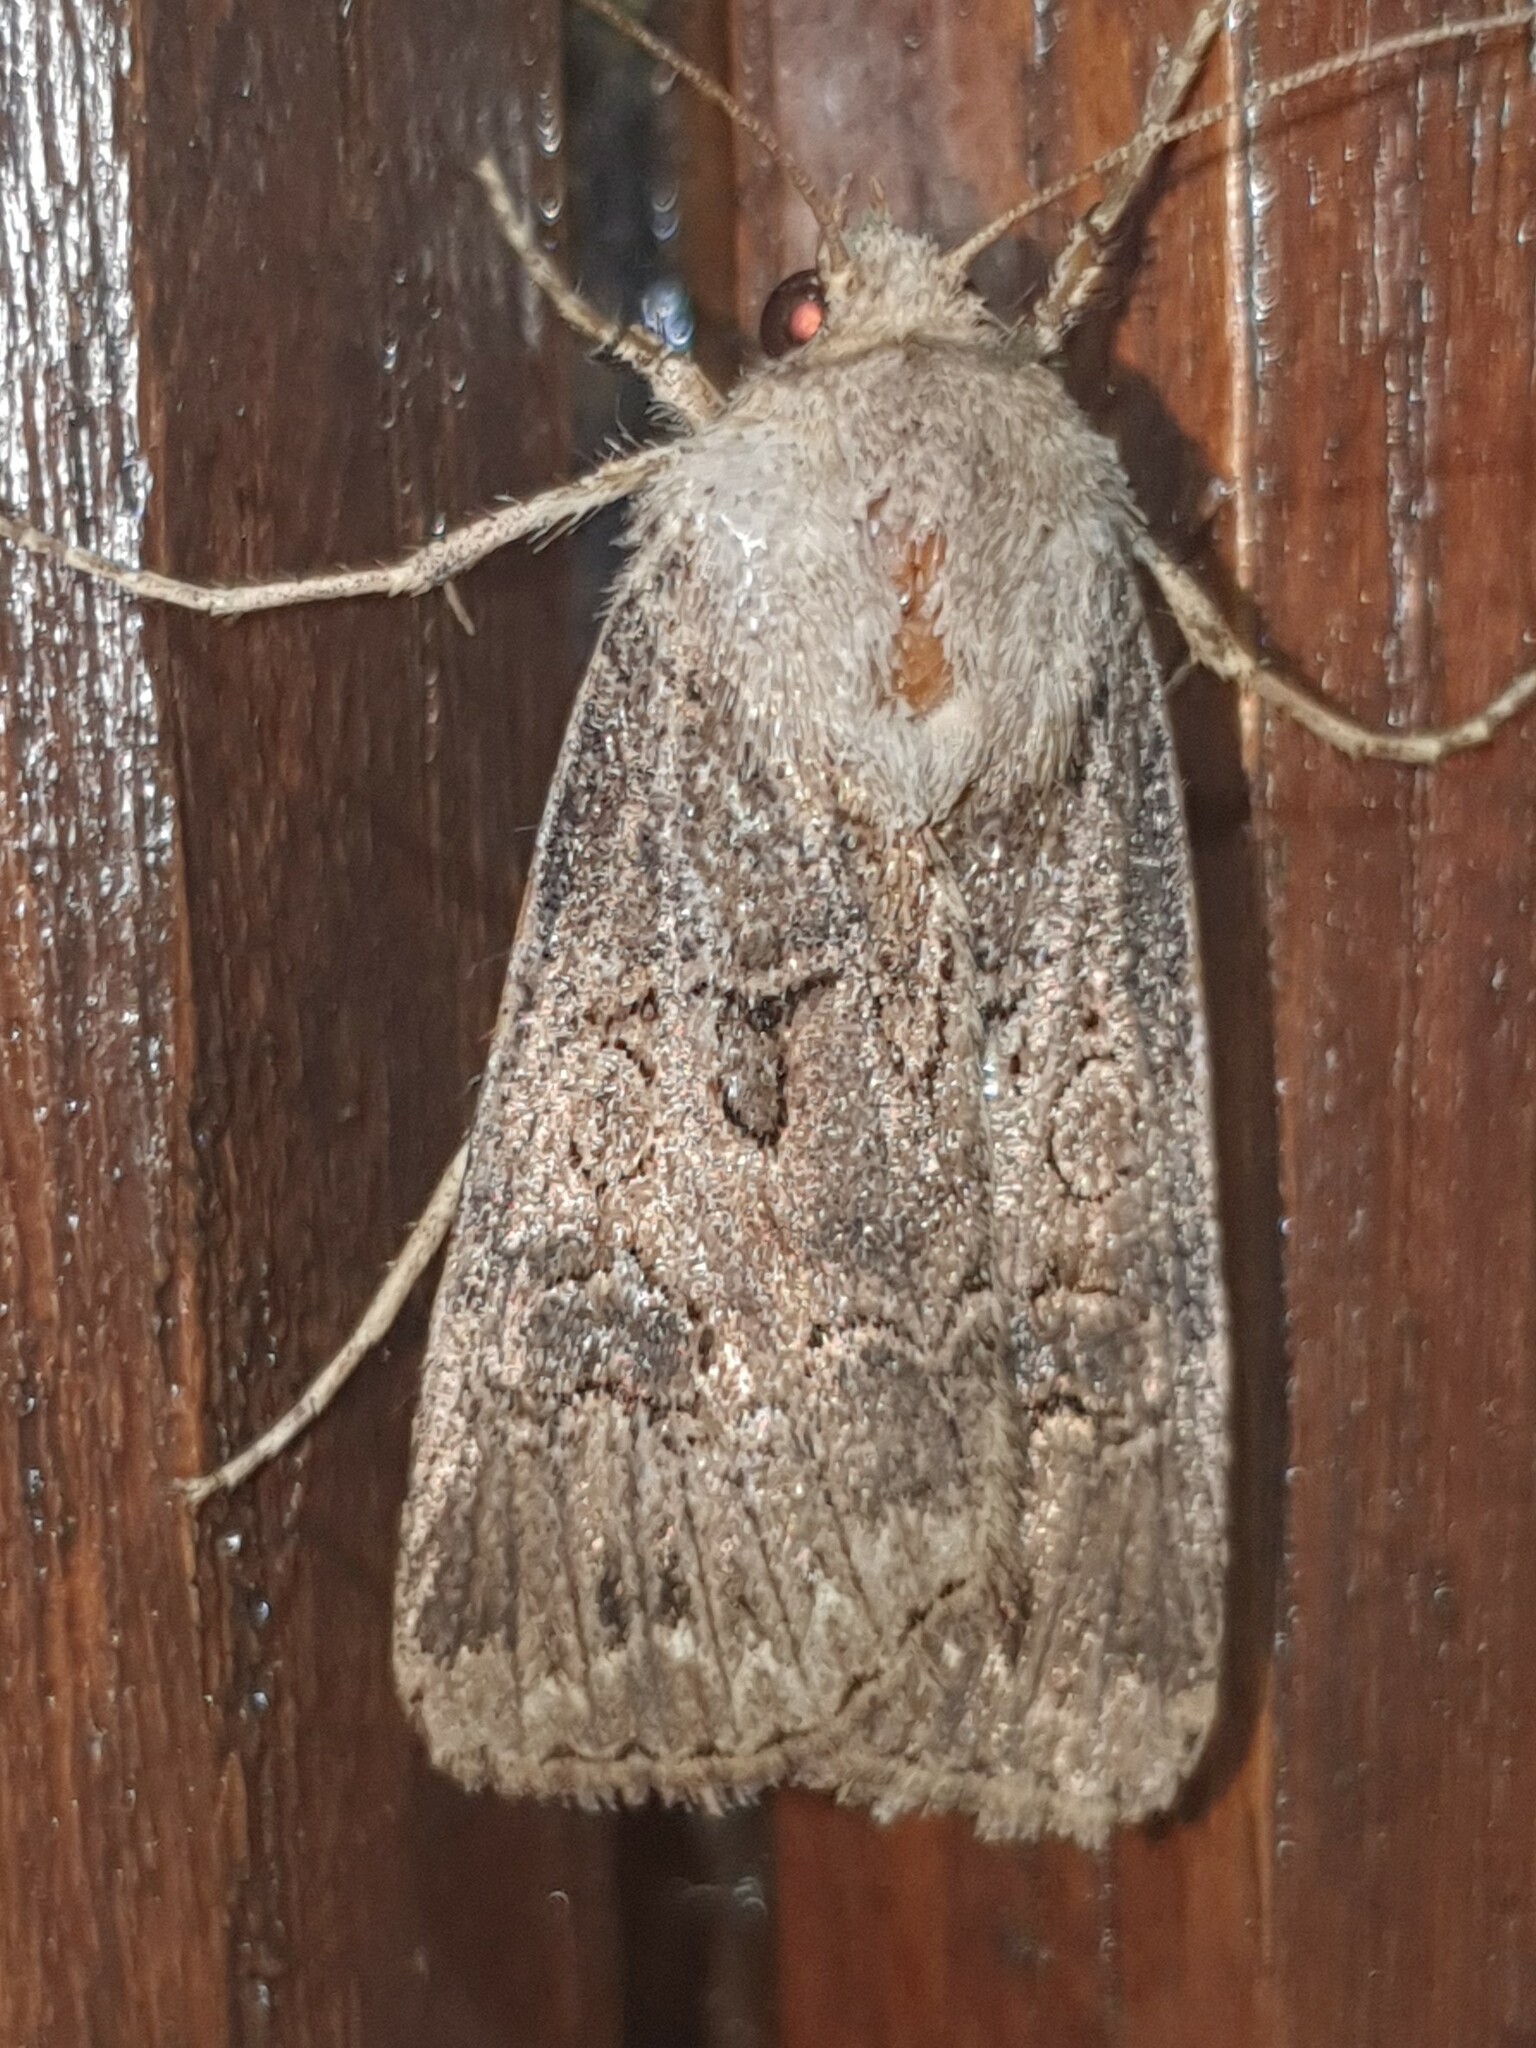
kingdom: Animalia
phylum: Arthropoda
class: Insecta
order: Lepidoptera
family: Noctuidae
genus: Agrotis
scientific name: Agrotis bigramma
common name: Great dart
